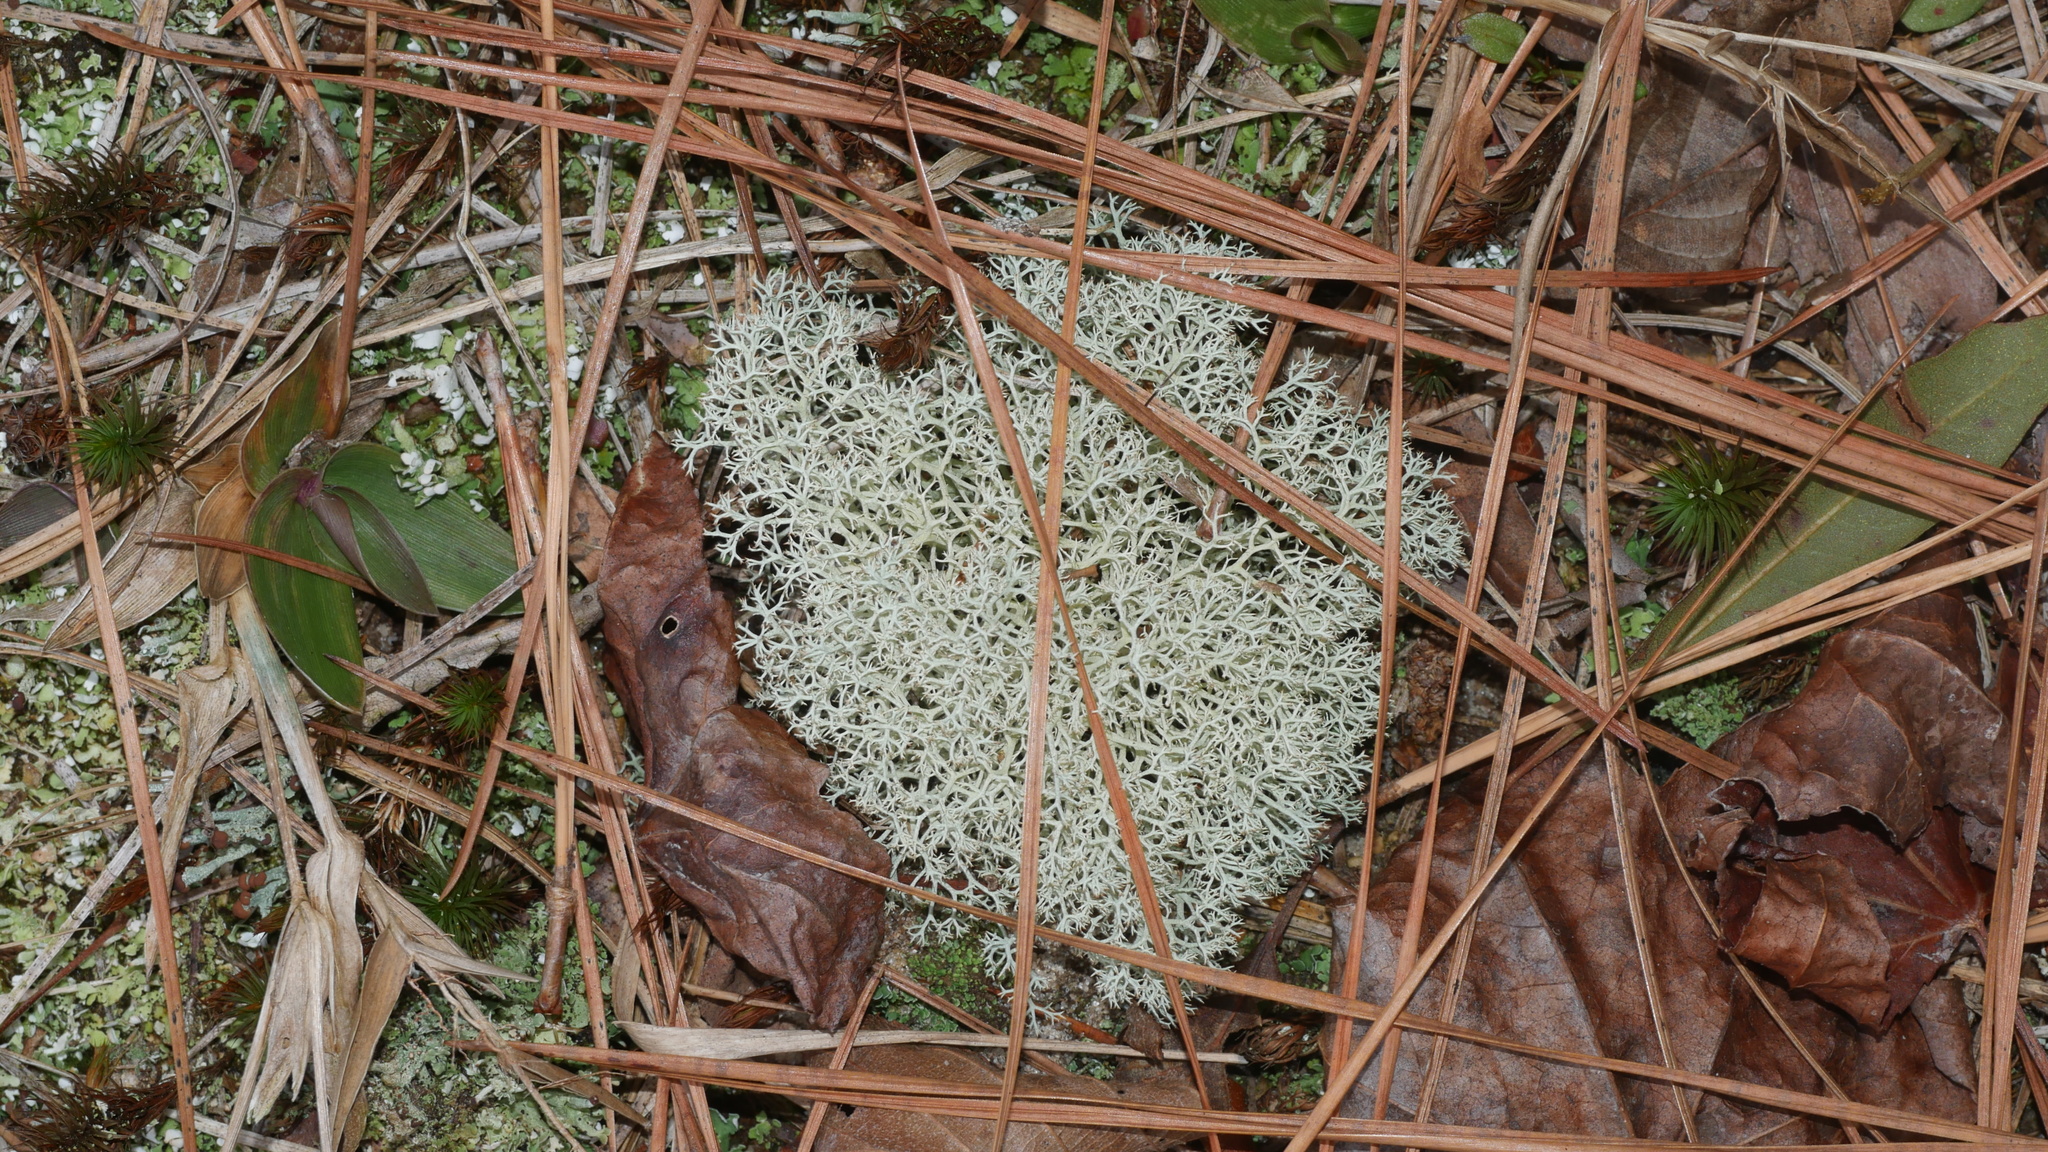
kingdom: Fungi
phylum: Ascomycota
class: Lecanoromycetes
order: Lecanorales
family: Cladoniaceae
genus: Cladonia
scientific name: Cladonia subtenuis
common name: Dixie reindeer lichen
